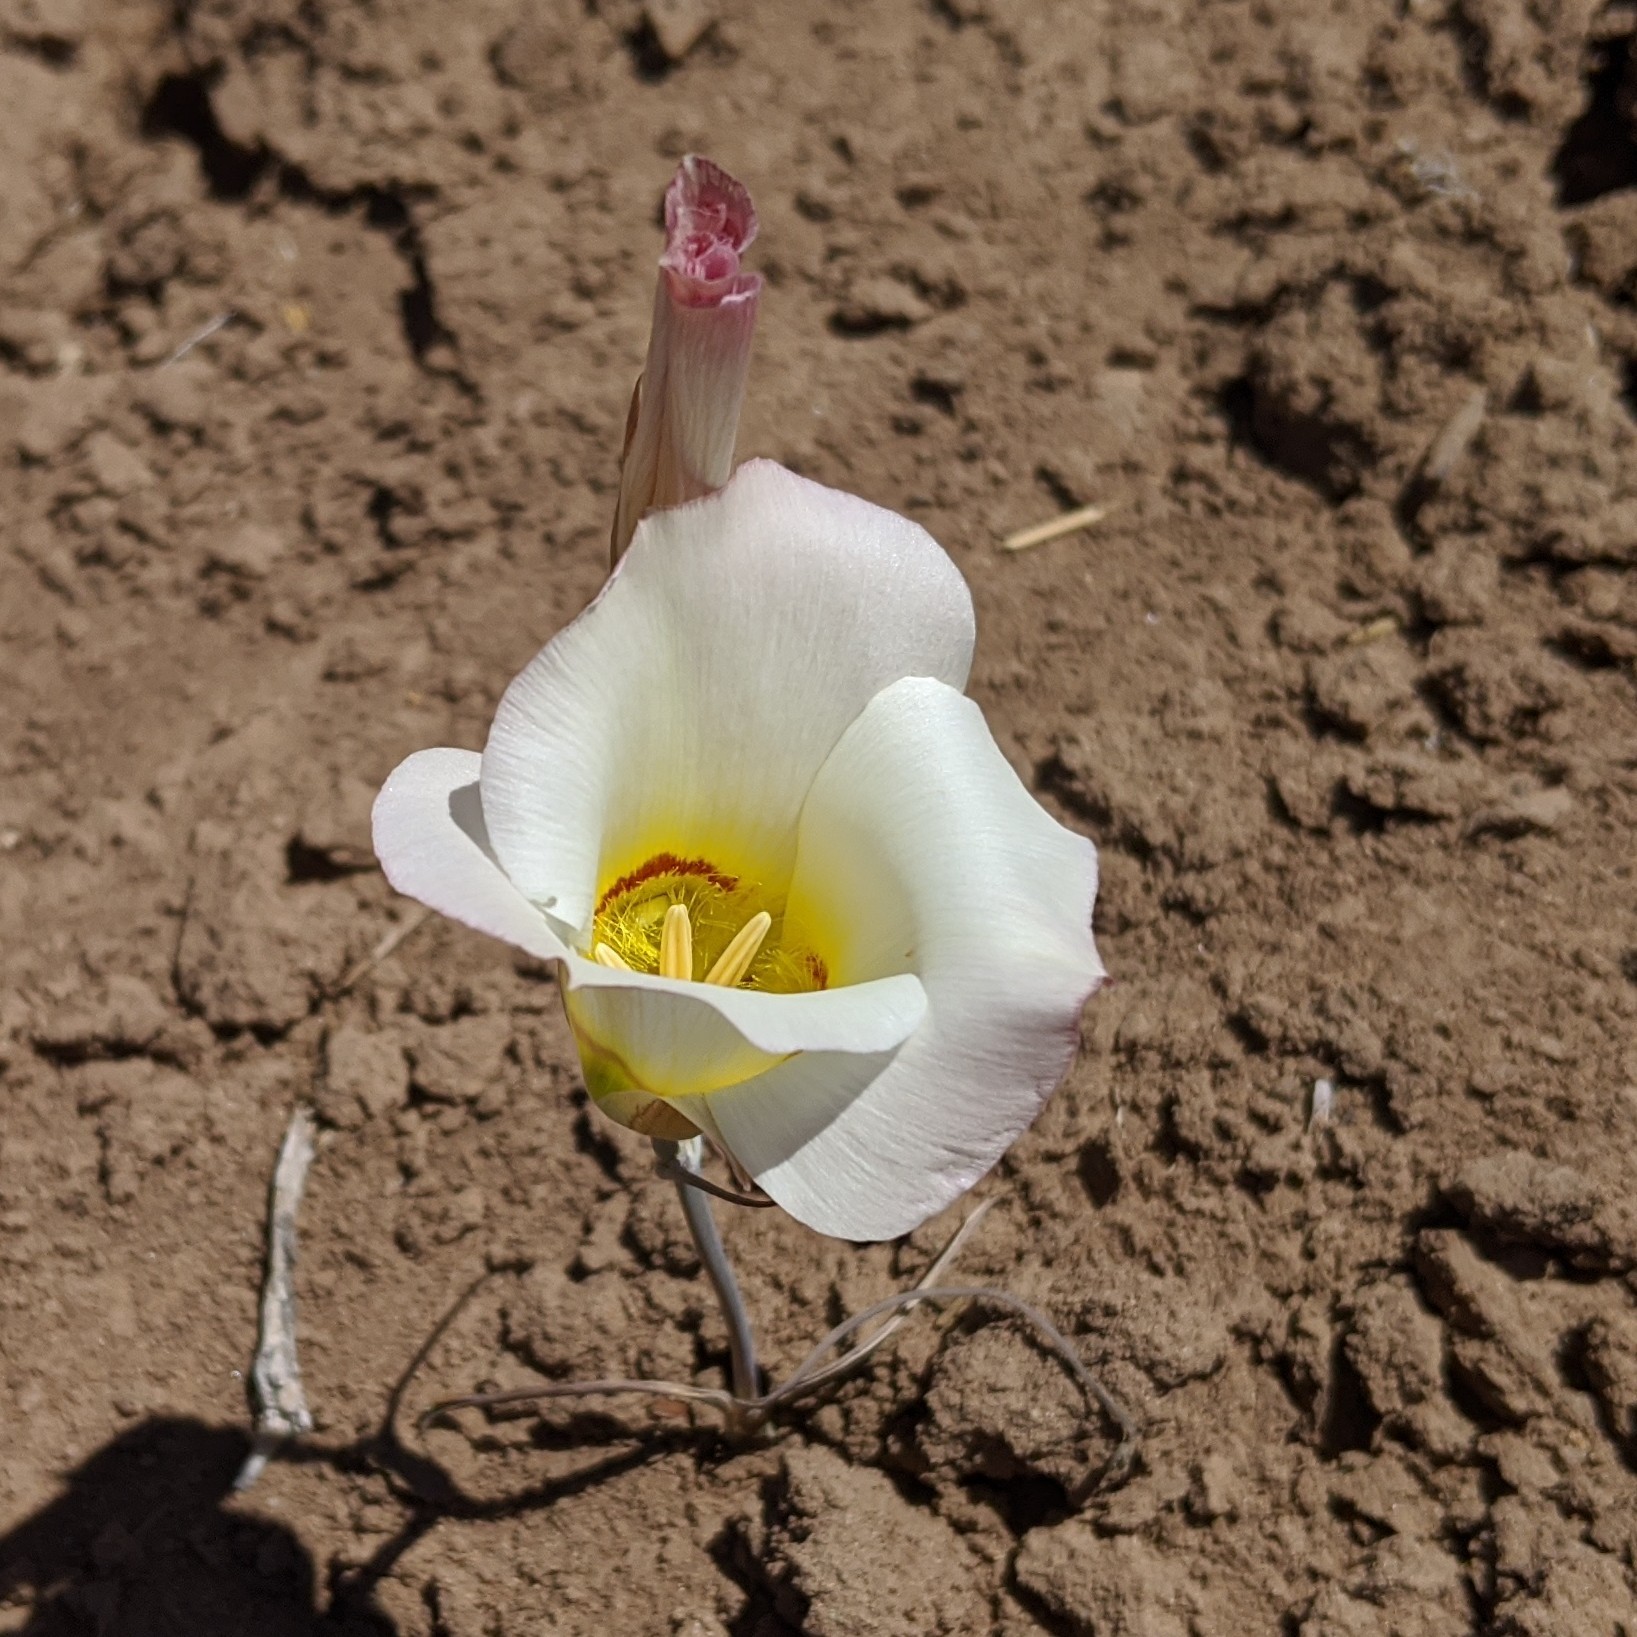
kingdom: Plantae
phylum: Tracheophyta
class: Liliopsida
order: Liliales
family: Liliaceae
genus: Calochortus
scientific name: Calochortus nuttallii
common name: Sego-lily
